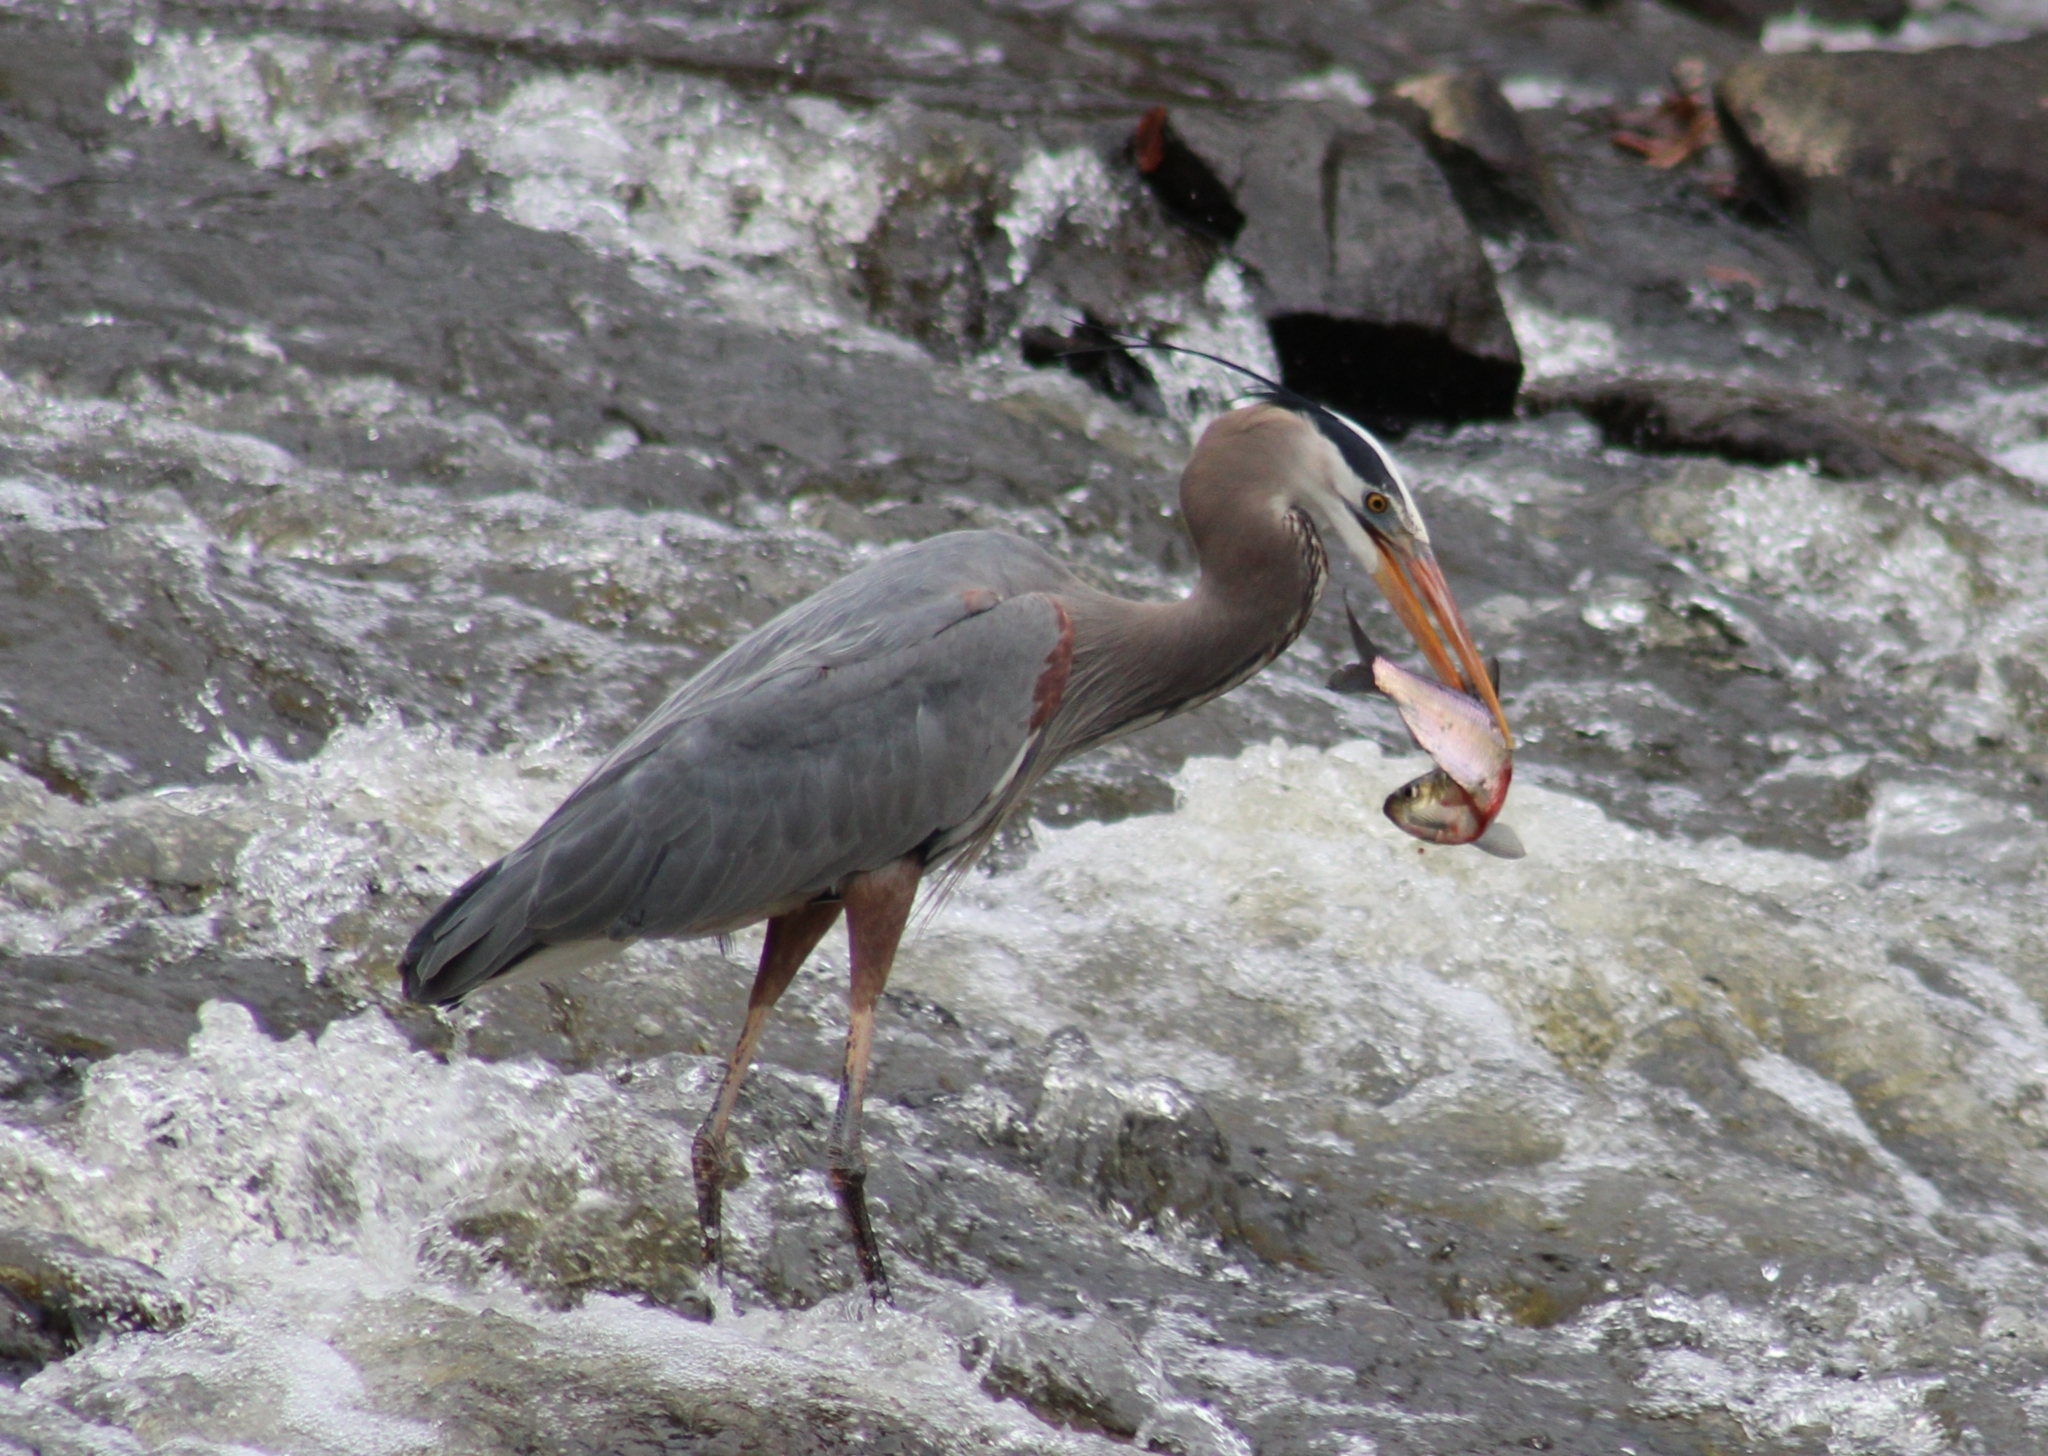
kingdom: Animalia
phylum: Chordata
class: Aves
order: Pelecaniformes
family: Ardeidae
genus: Ardea
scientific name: Ardea herodias
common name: Great blue heron
